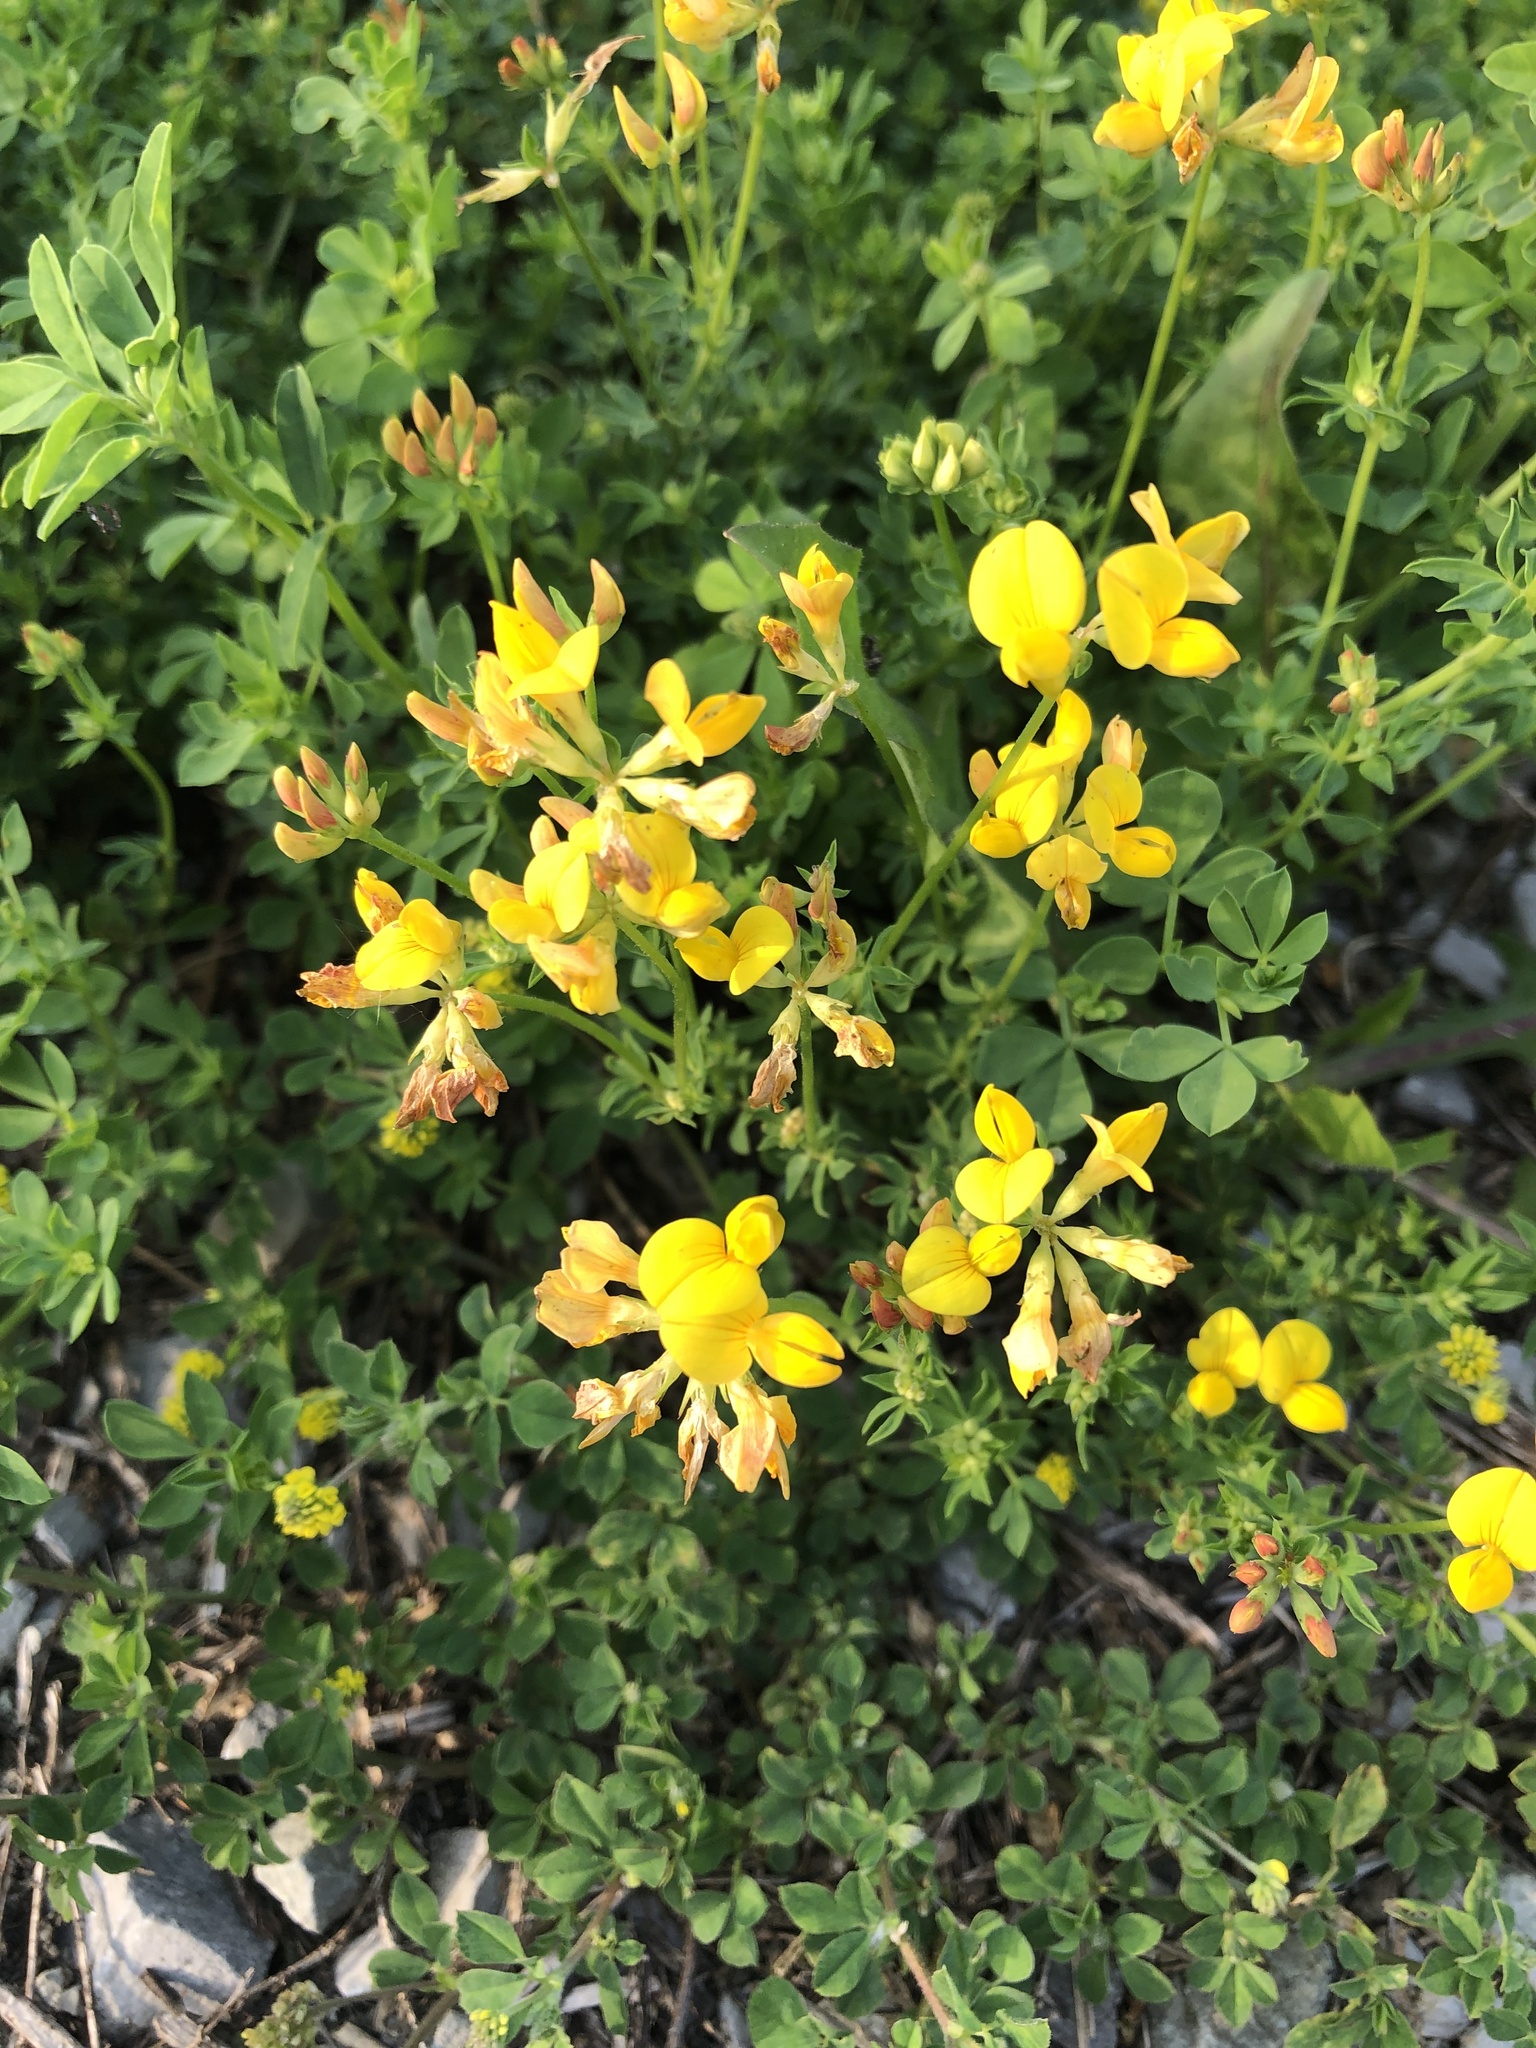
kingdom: Plantae
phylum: Tracheophyta
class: Magnoliopsida
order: Fabales
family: Fabaceae
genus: Lotus
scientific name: Lotus corniculatus
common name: Common bird's-foot-trefoil
